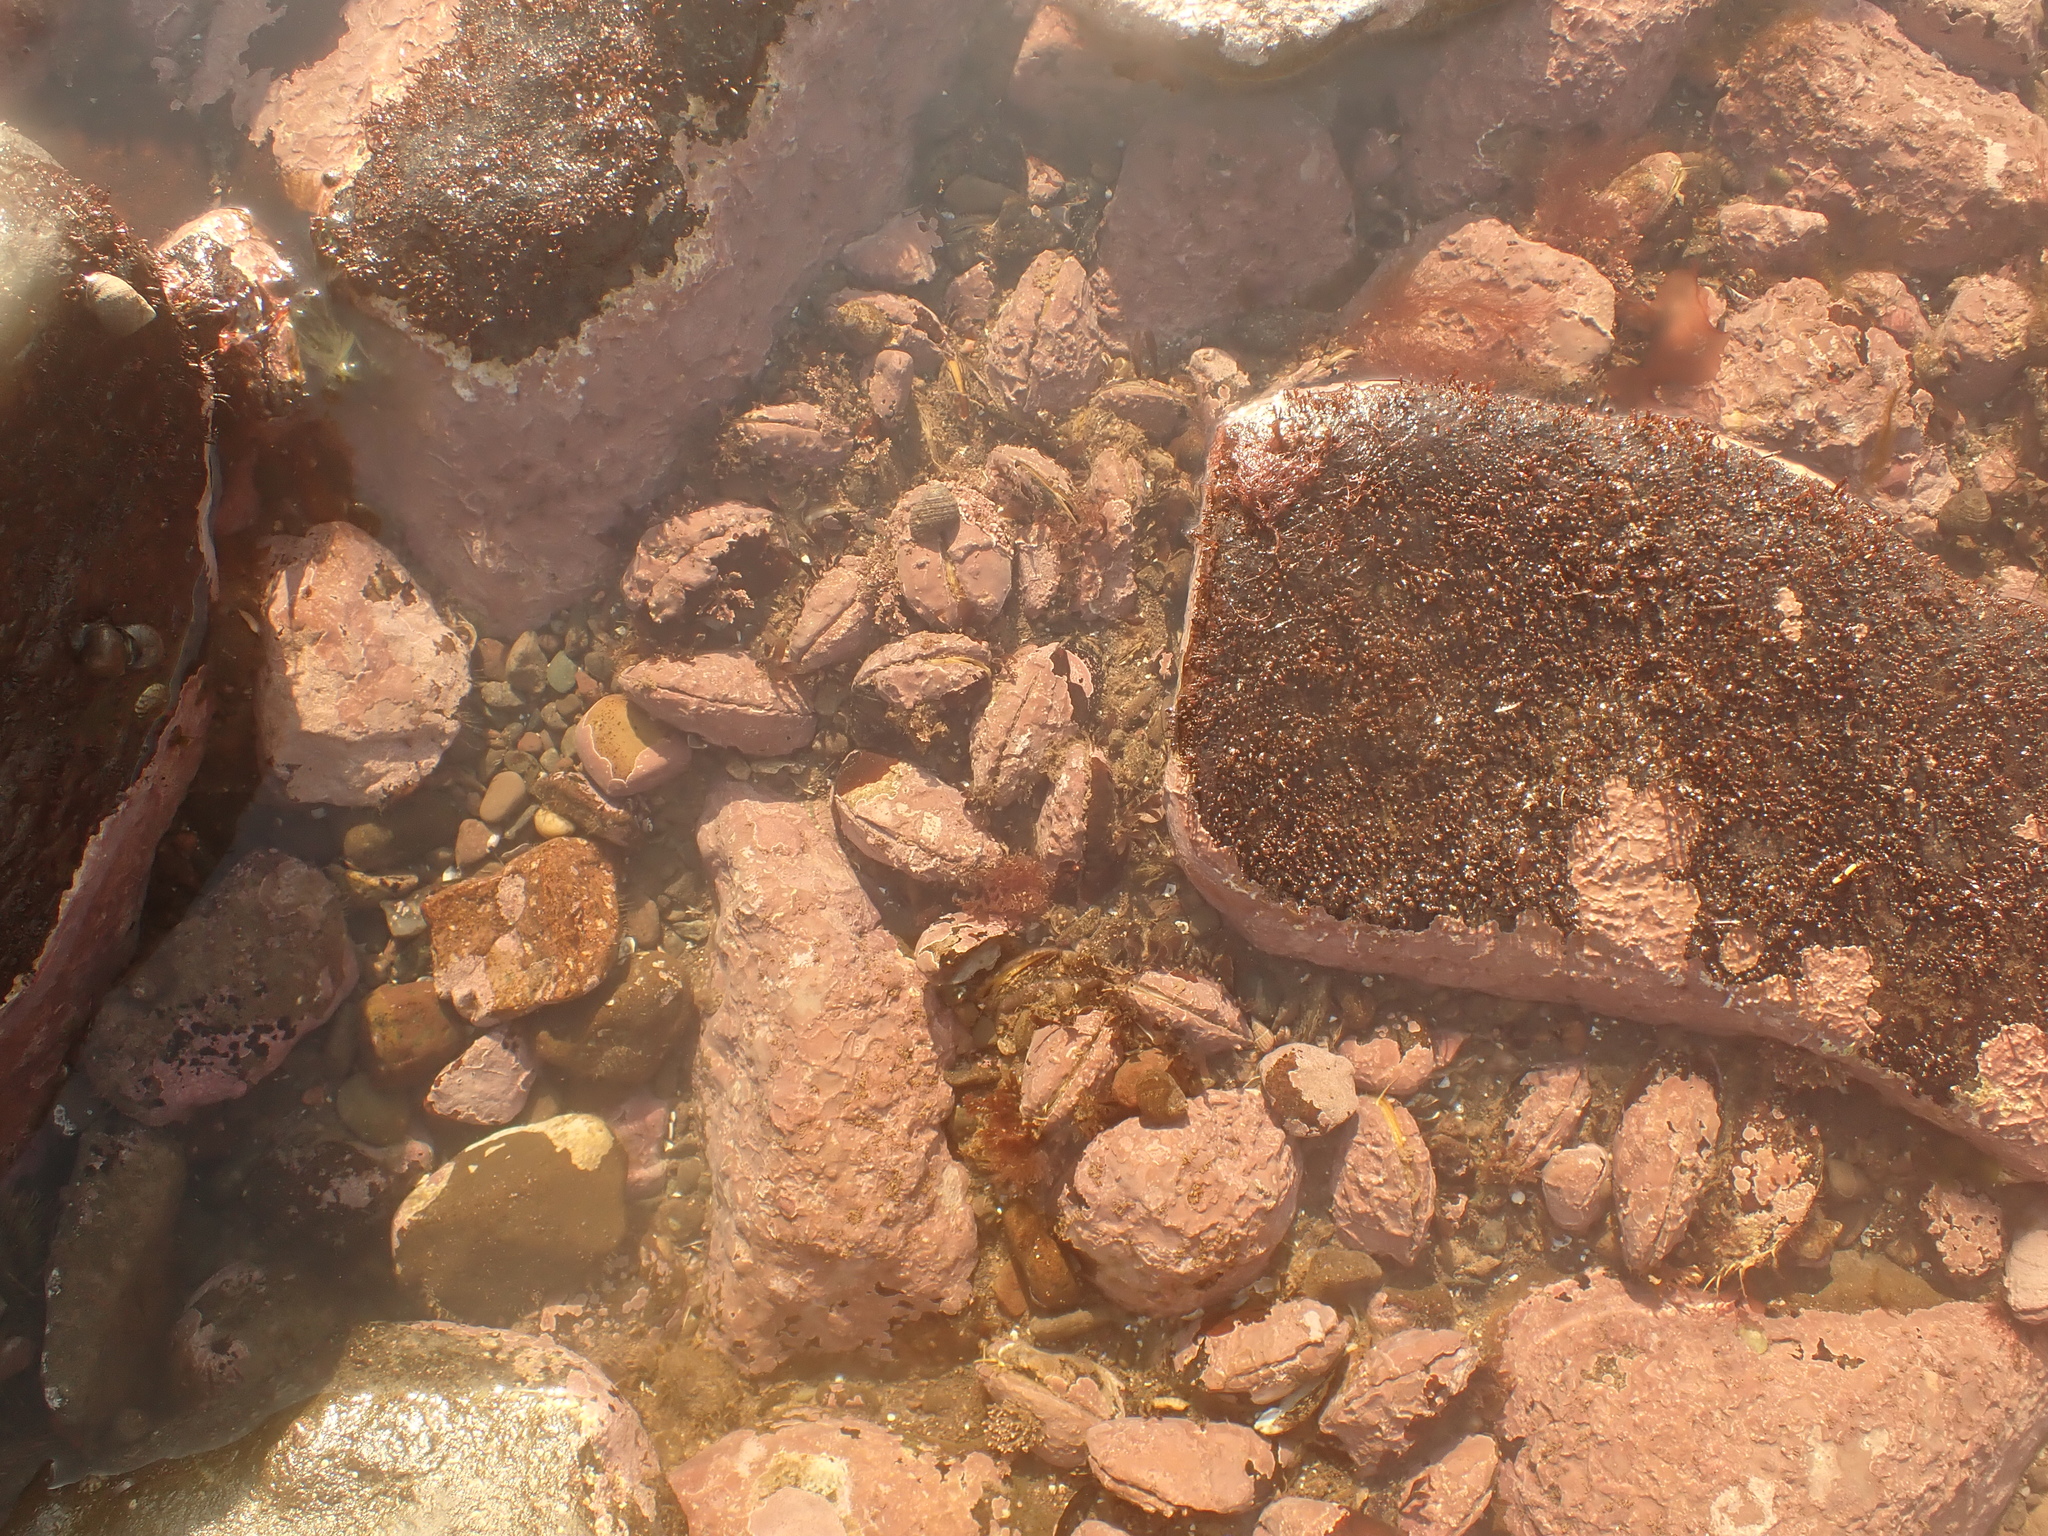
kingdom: Animalia
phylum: Mollusca
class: Bivalvia
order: Mytilida
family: Mytilidae
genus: Modiolus
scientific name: Modiolus modiolus
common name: Horse-mussel
